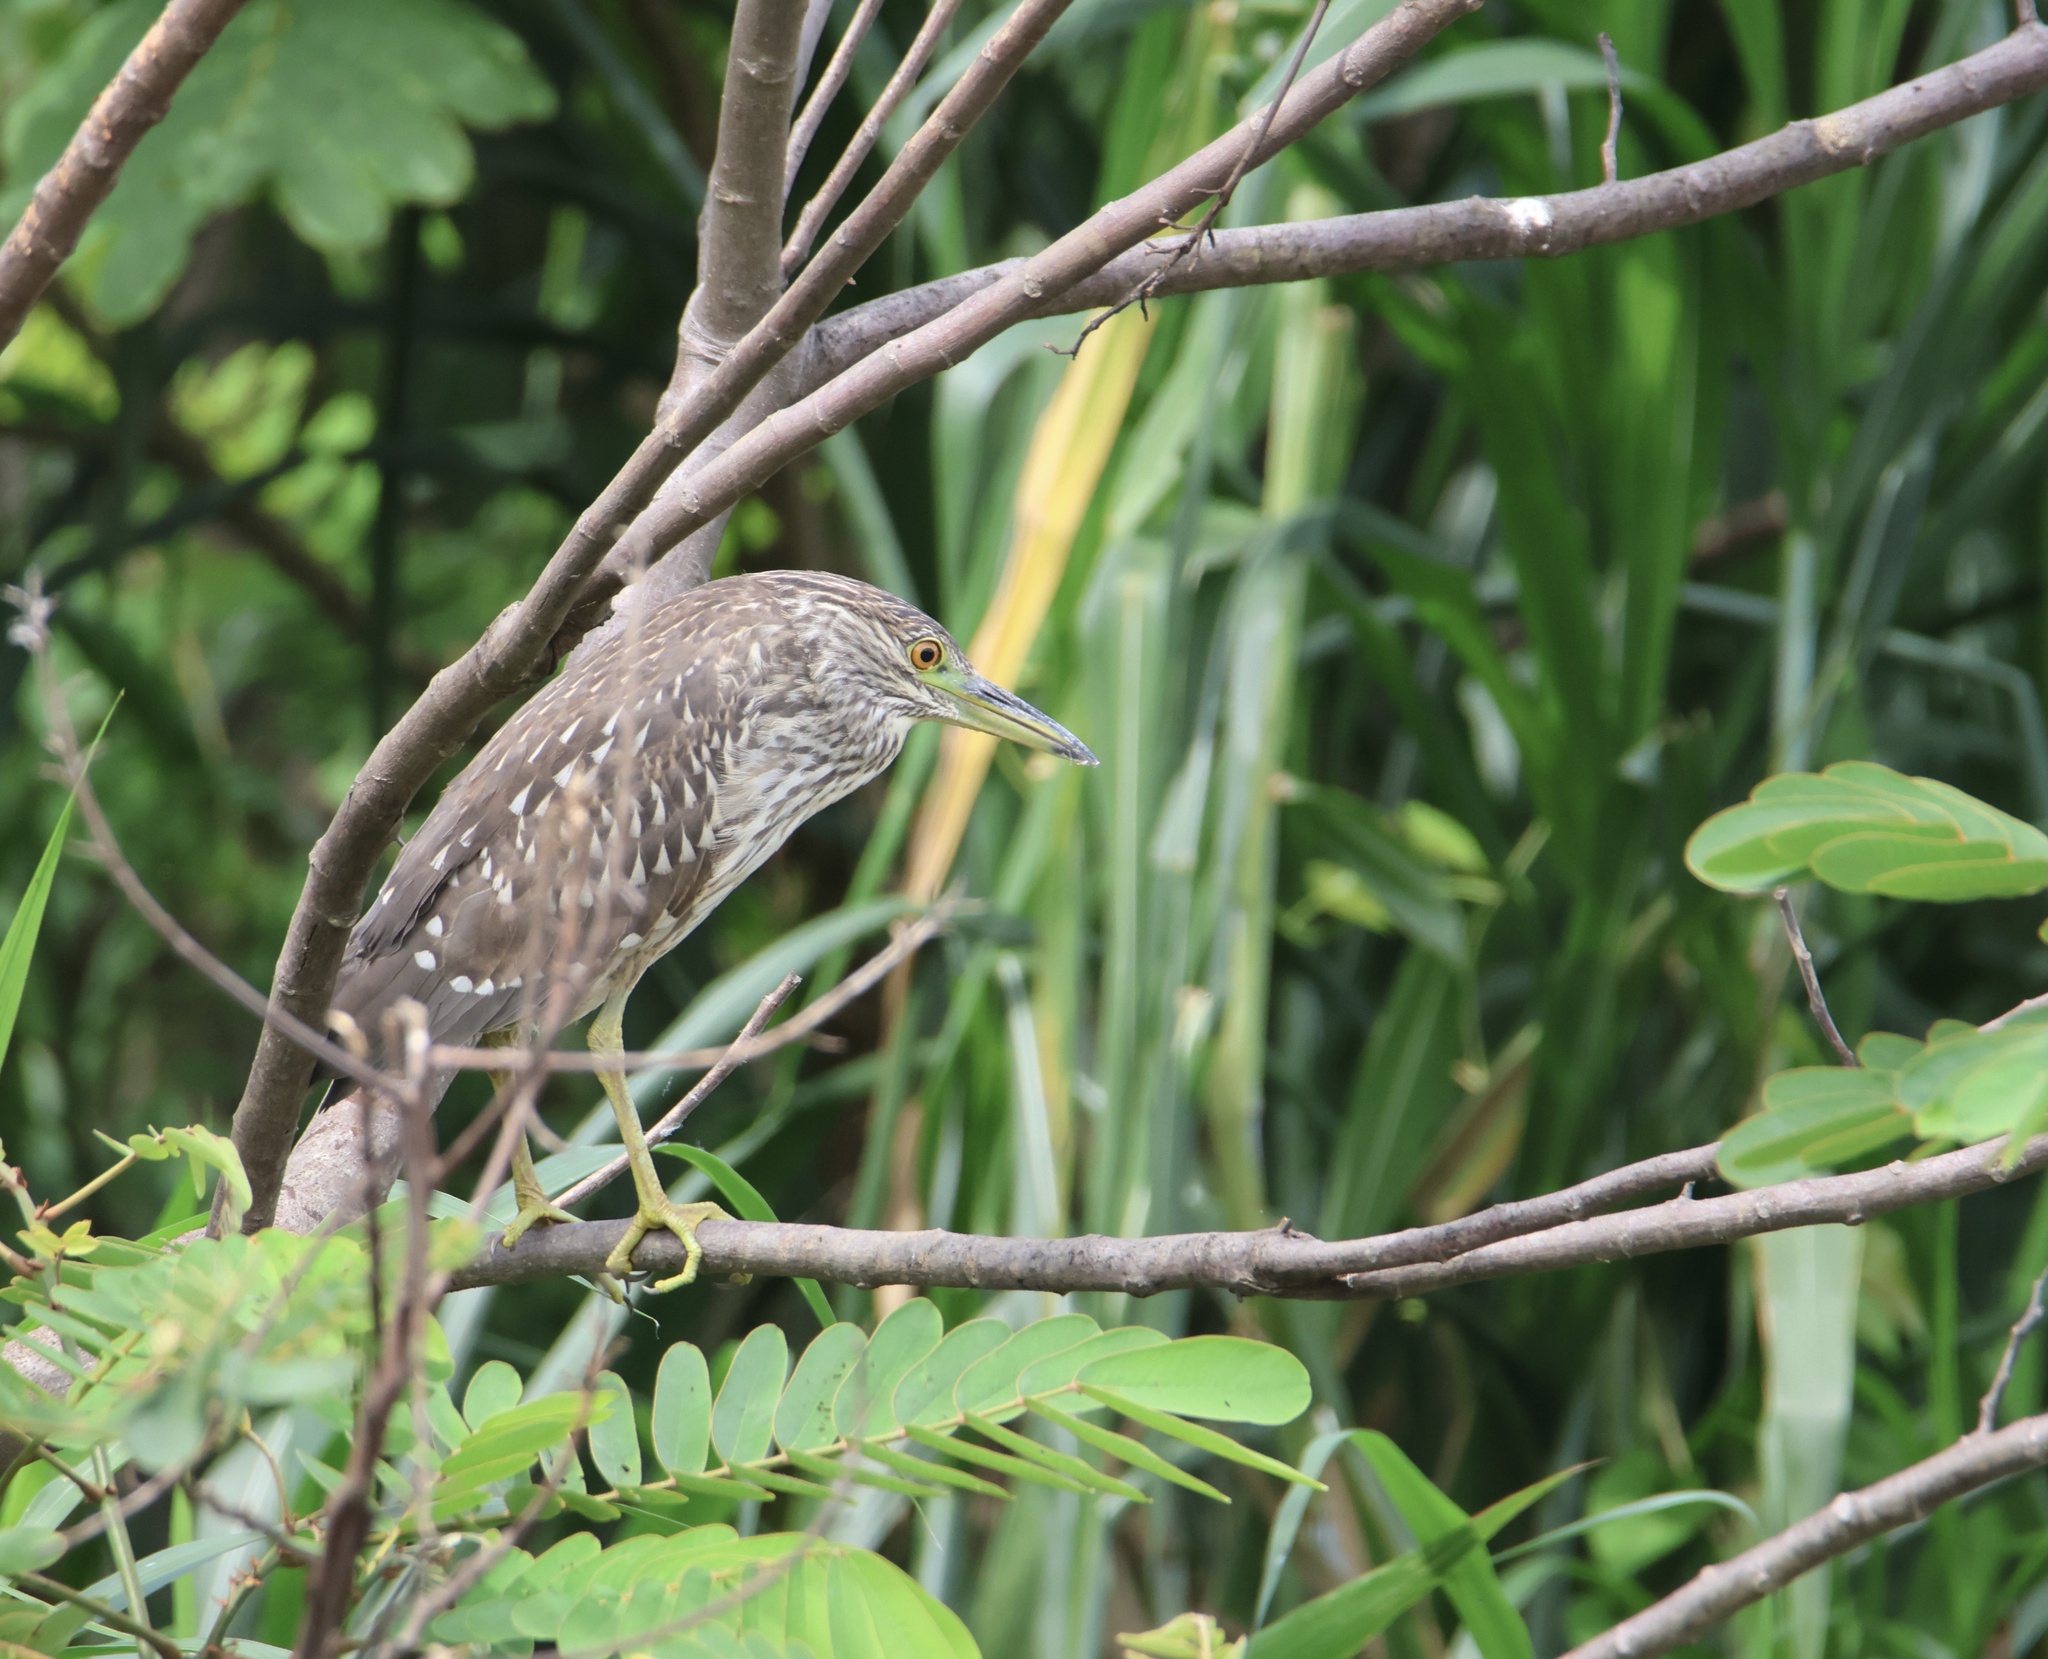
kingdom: Animalia
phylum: Chordata
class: Aves
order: Pelecaniformes
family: Ardeidae
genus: Nycticorax
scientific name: Nycticorax nycticorax
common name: Black-crowned night heron
